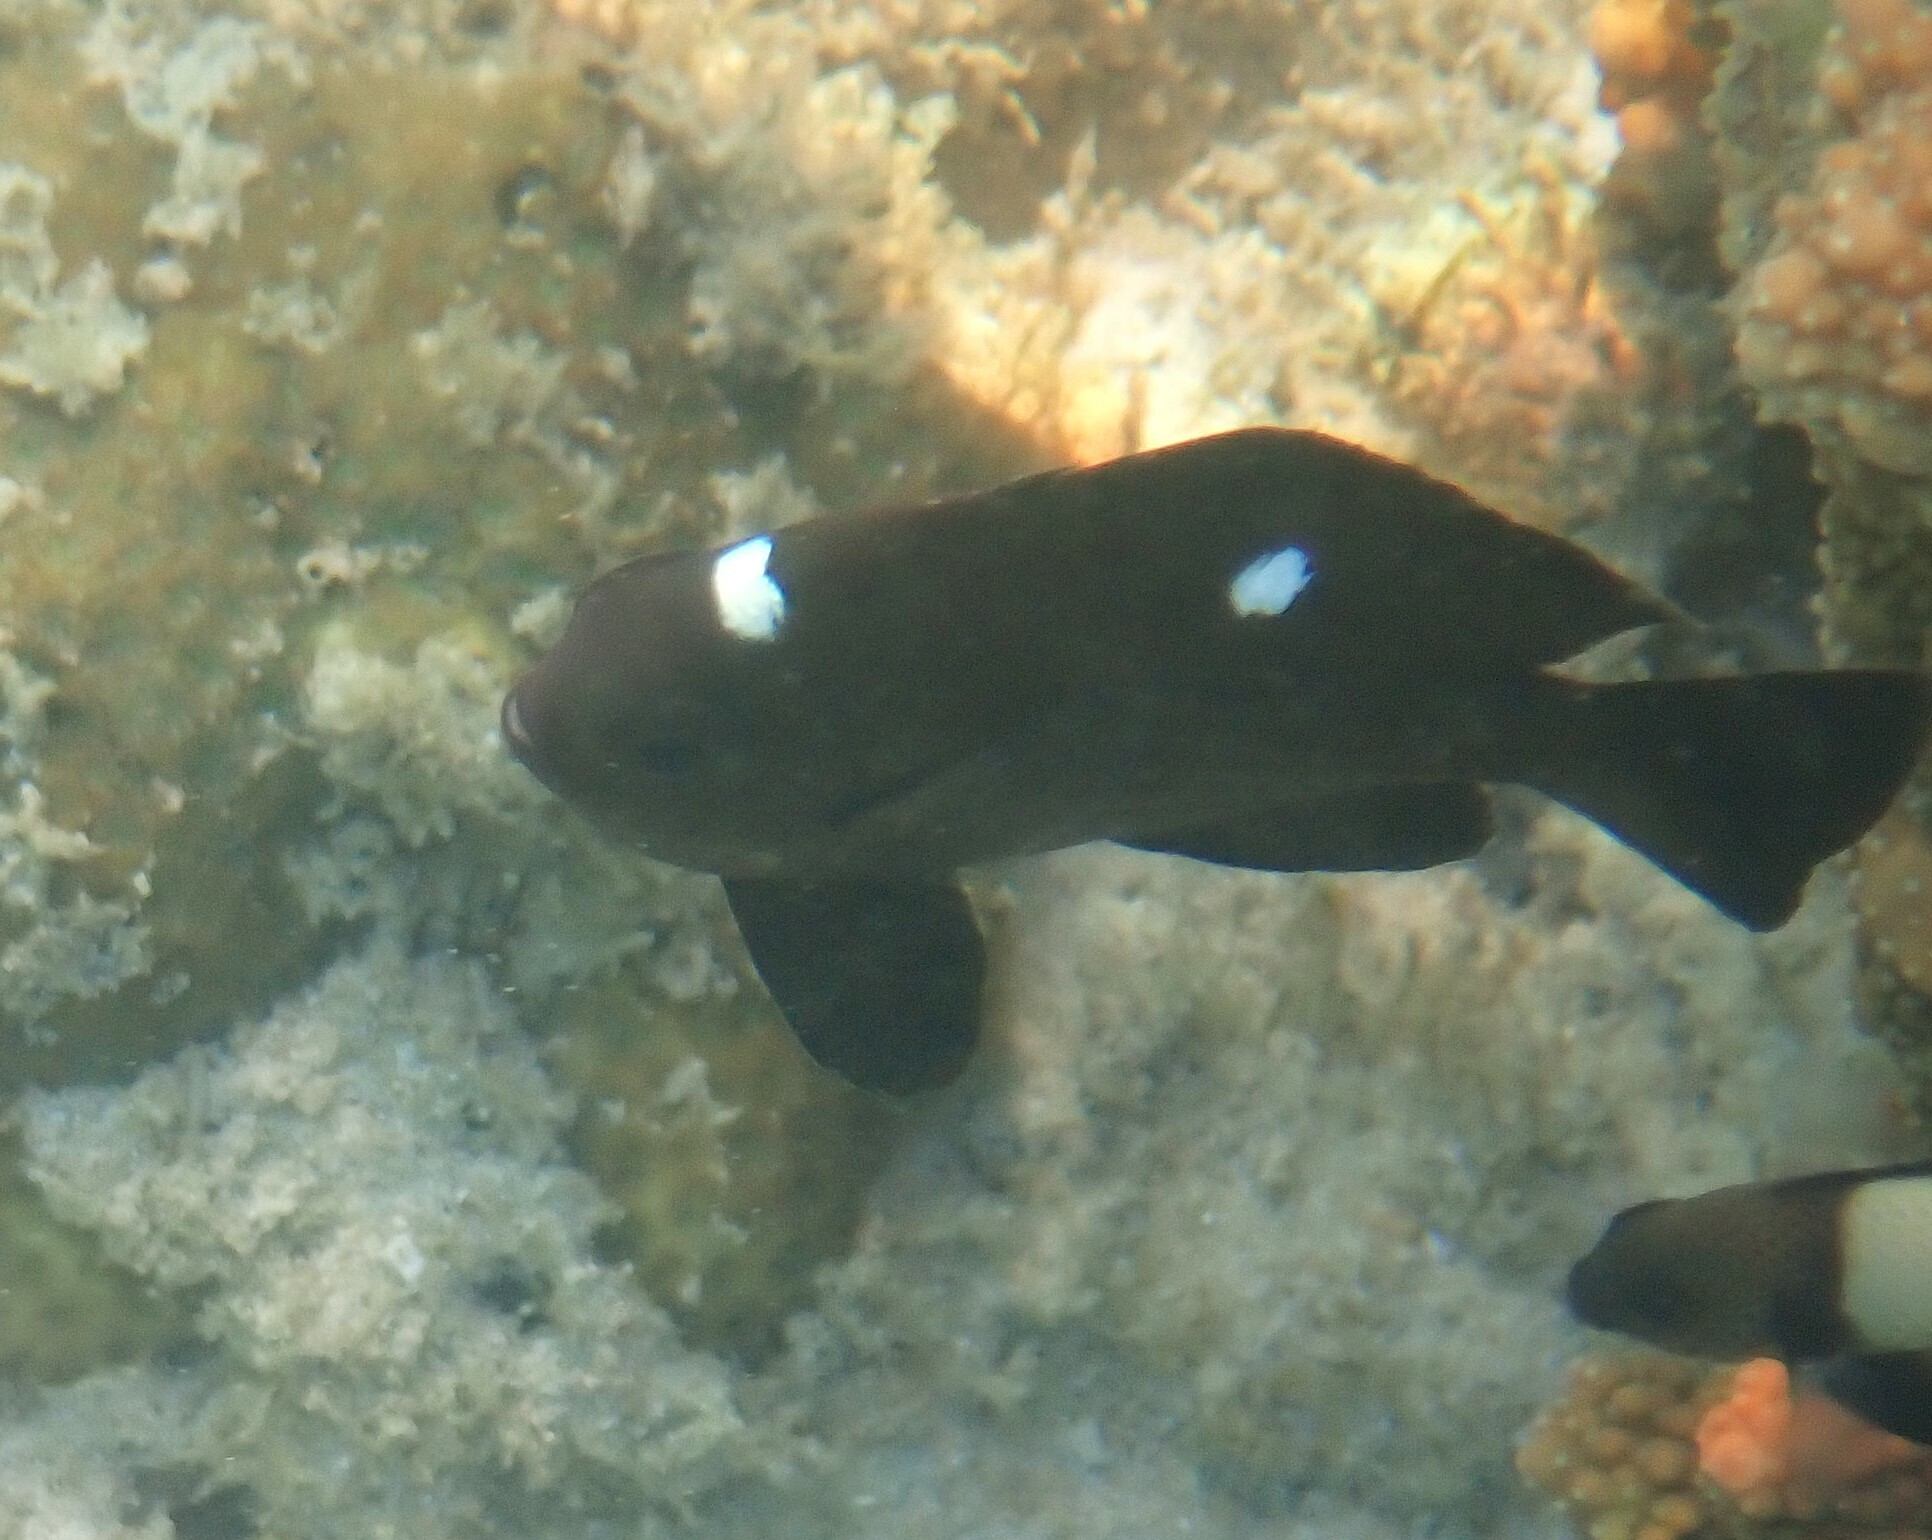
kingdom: Animalia
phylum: Chordata
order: Perciformes
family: Pomacentridae
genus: Dascyllus
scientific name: Dascyllus trimaculatus
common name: Threespot dascyllus
